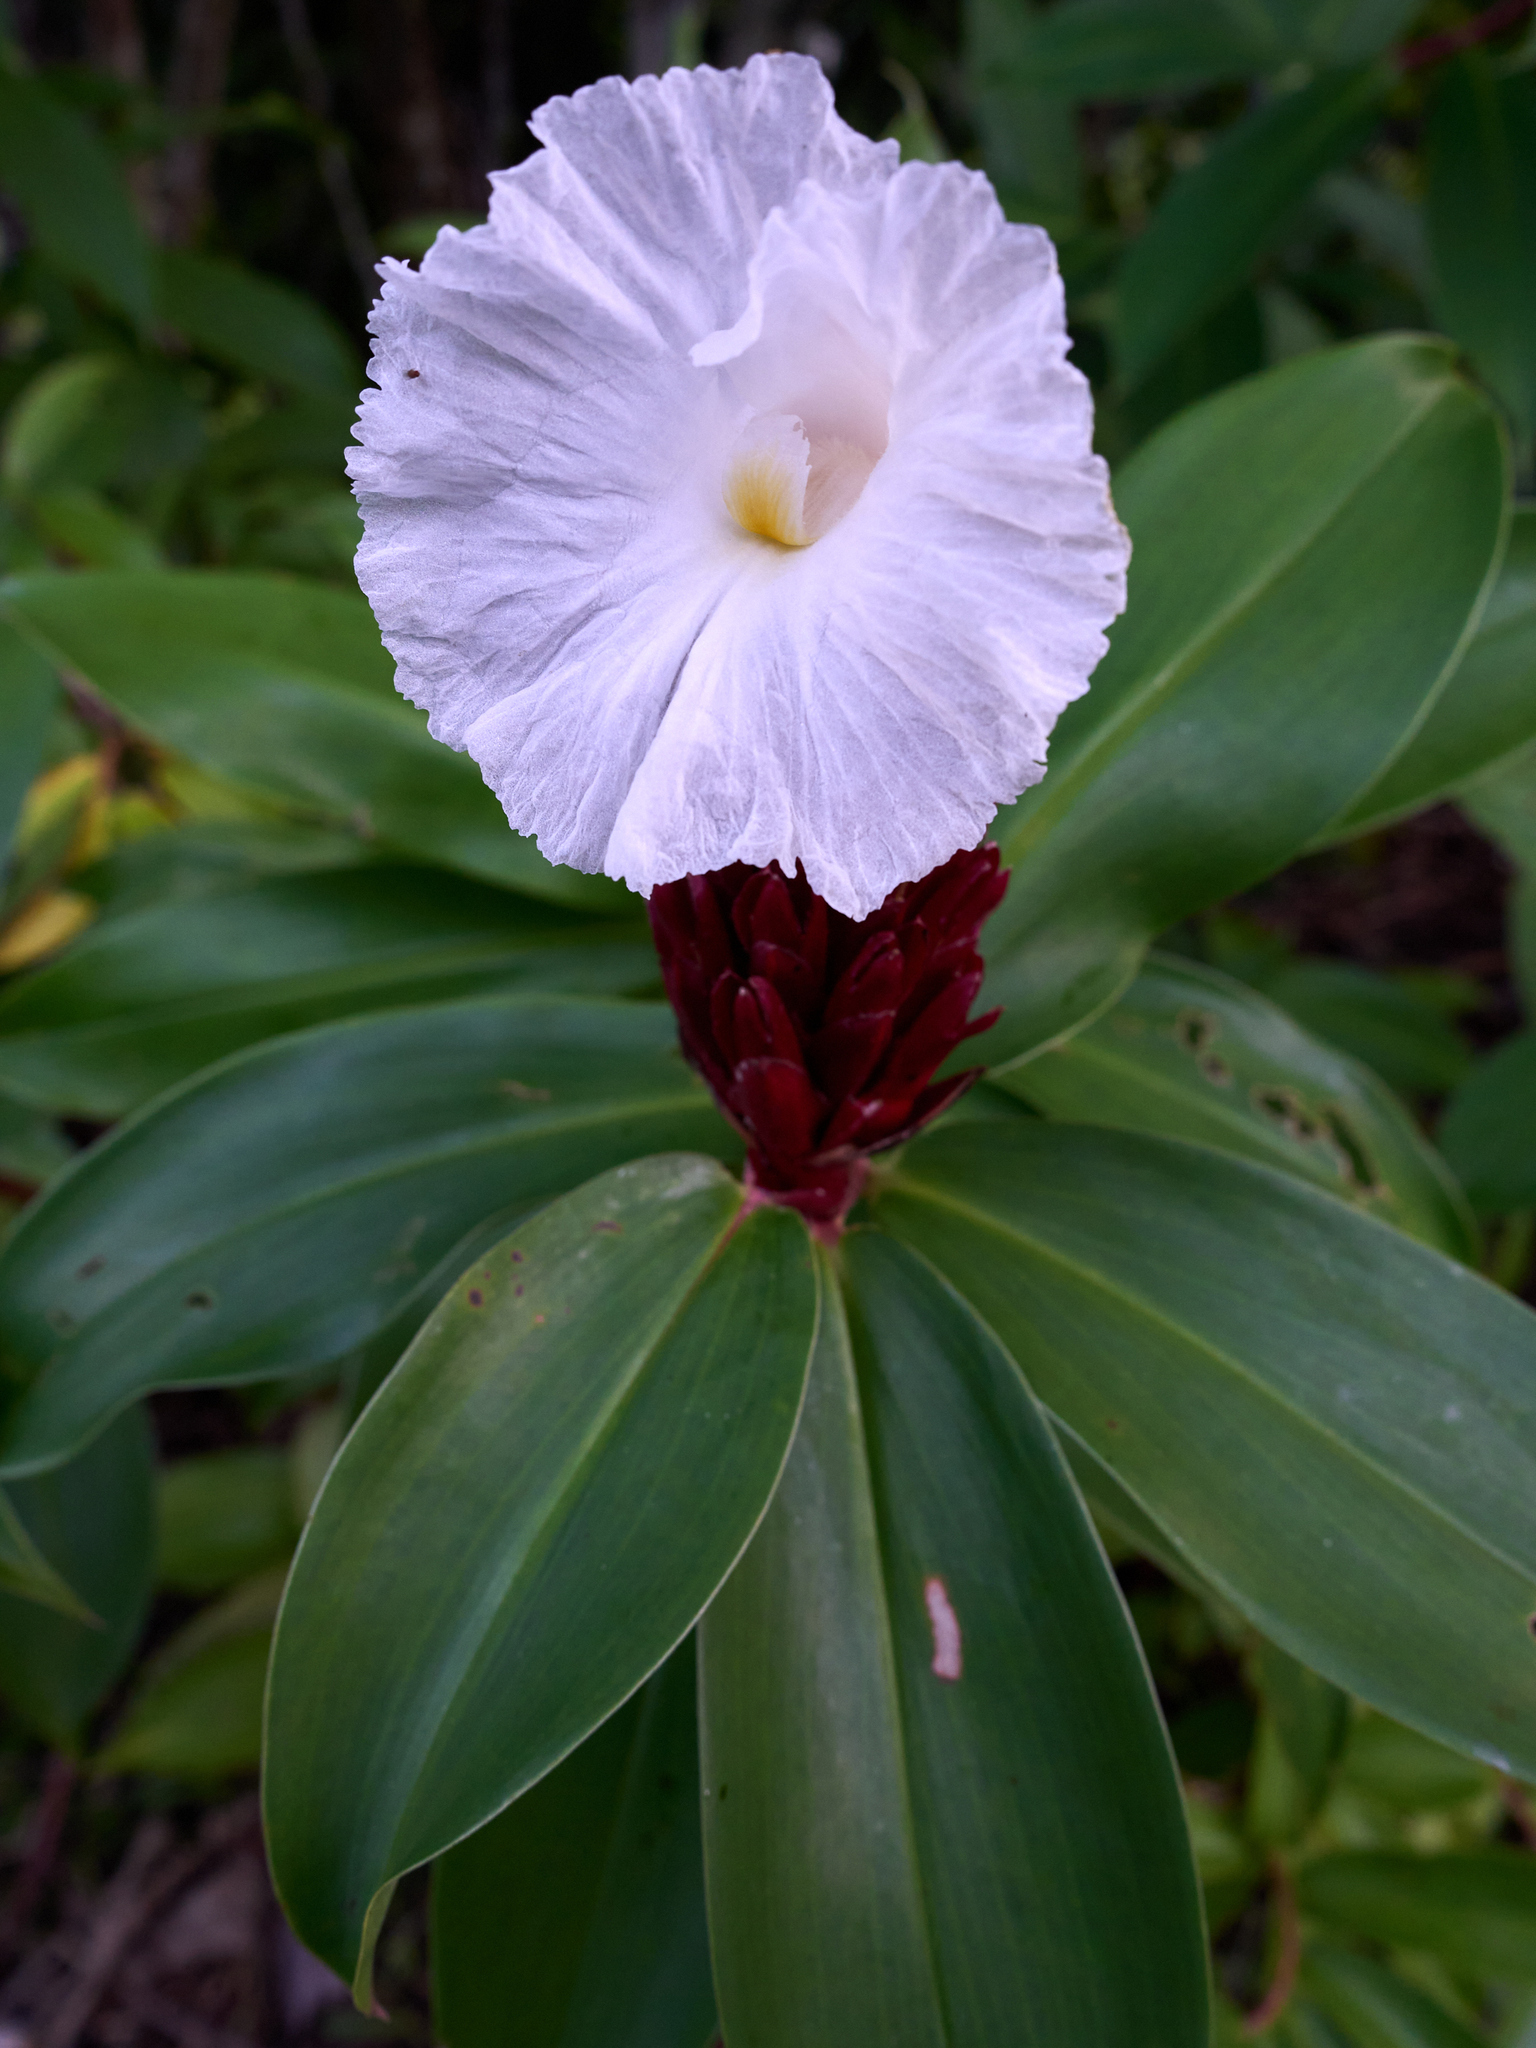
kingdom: Plantae
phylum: Tracheophyta
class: Liliopsida
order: Zingiberales
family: Costaceae
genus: Hellenia
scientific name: Hellenia speciosa
